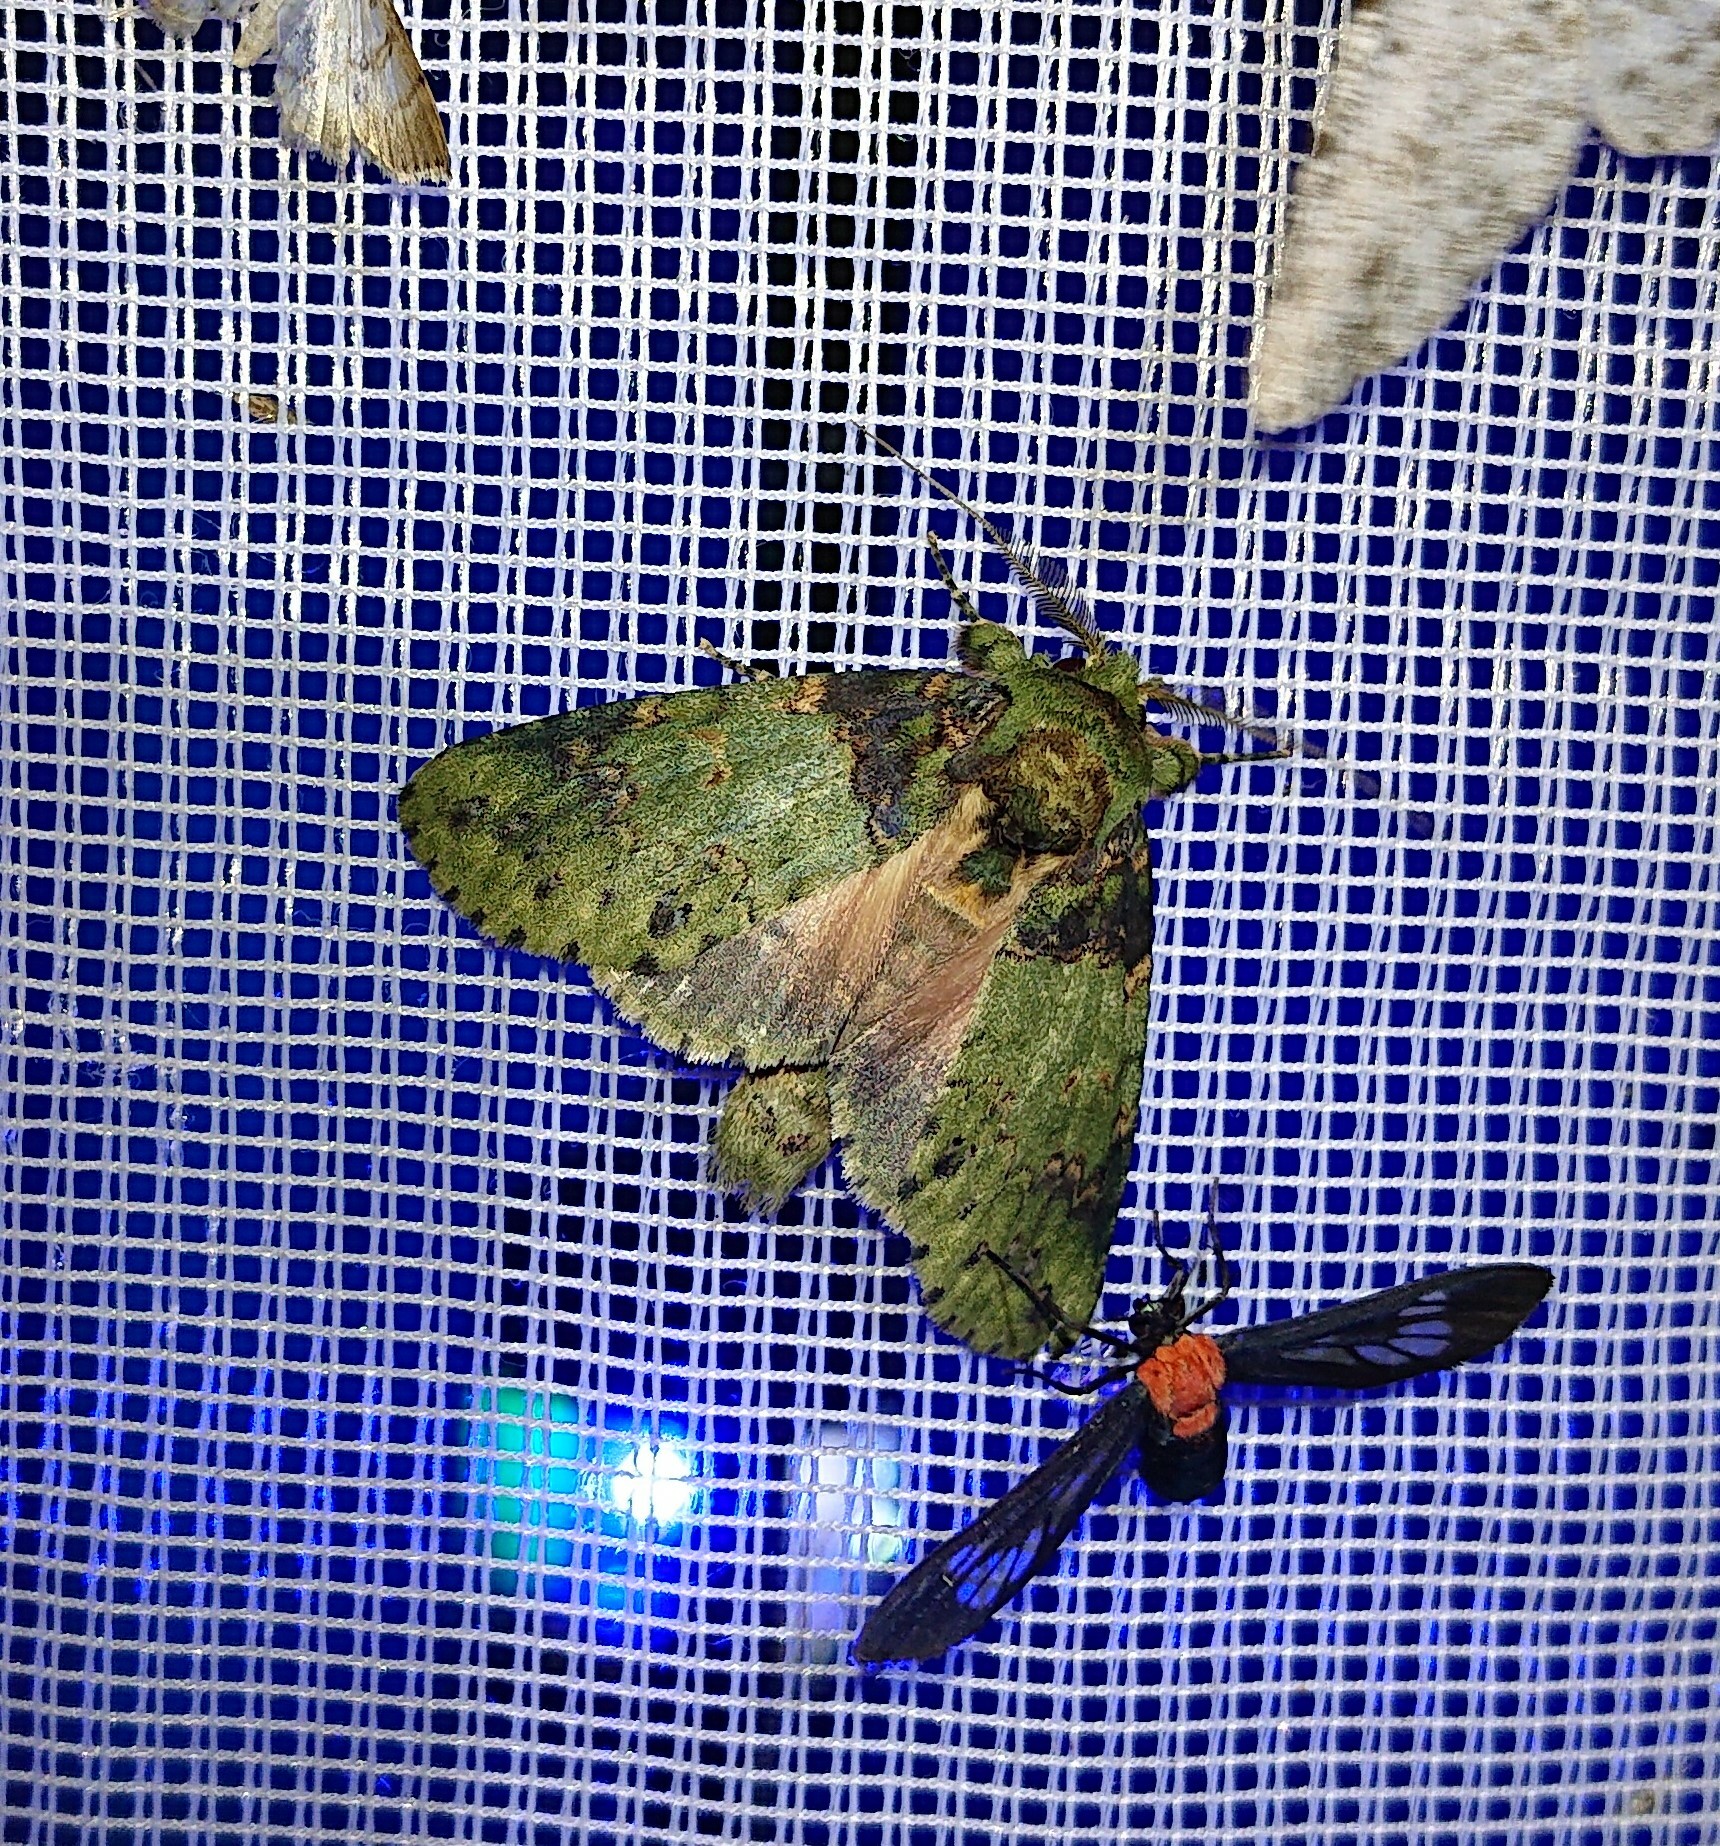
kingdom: Animalia
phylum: Arthropoda
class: Insecta
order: Lepidoptera
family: Notodontidae
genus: Disphragis
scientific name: Disphragis meretricia
